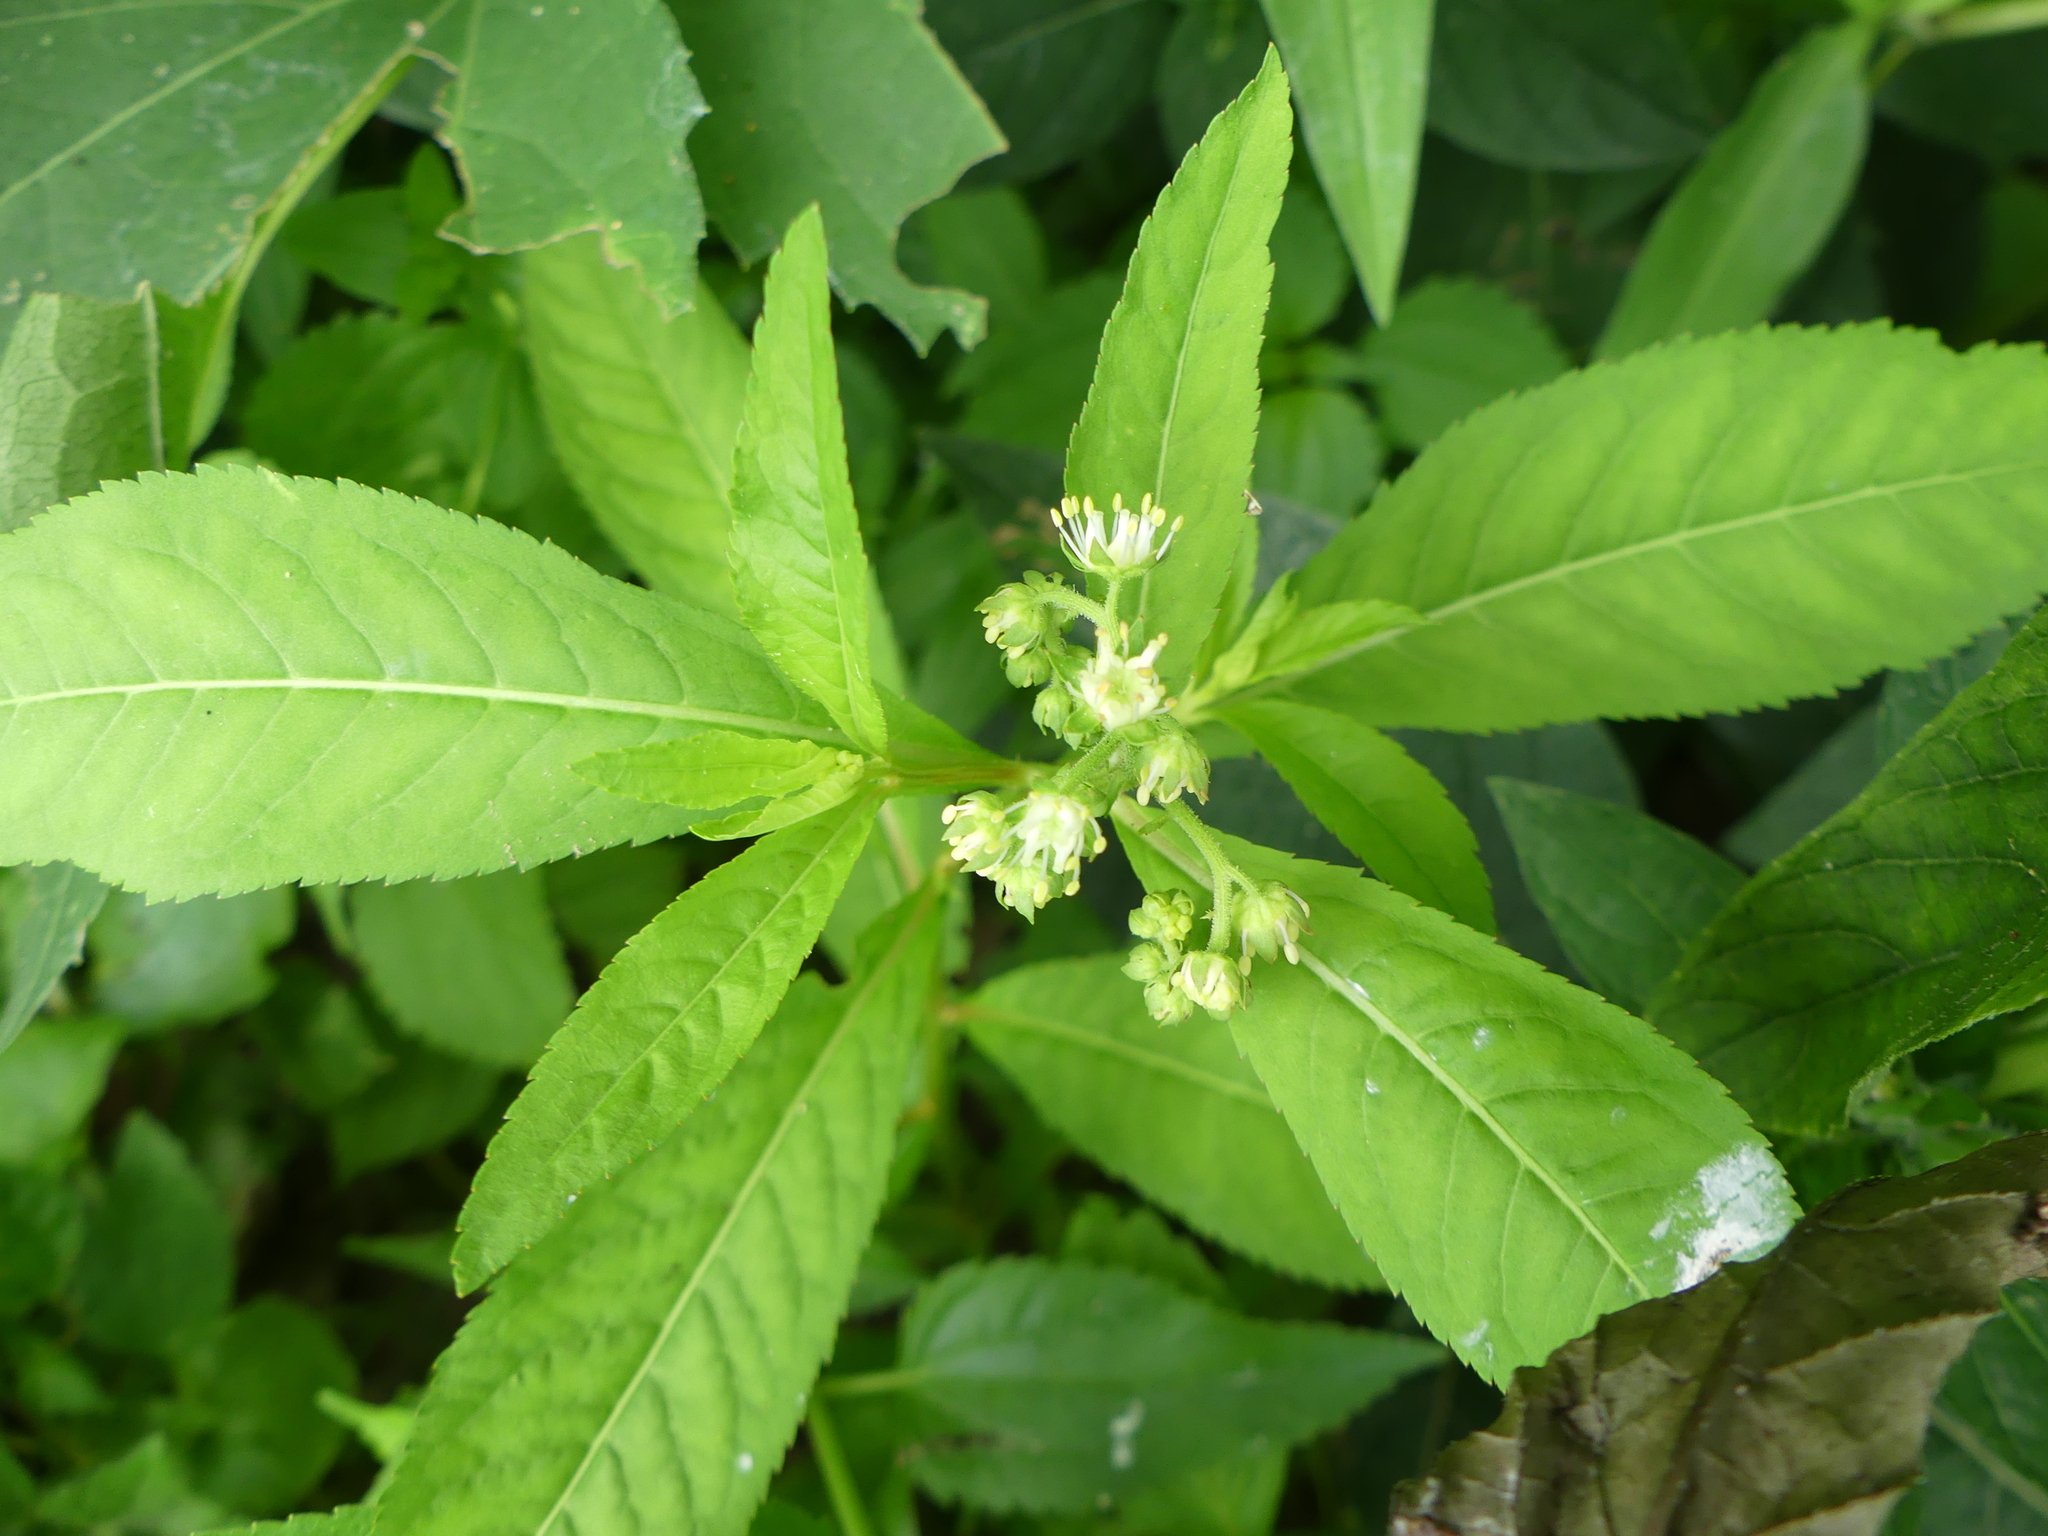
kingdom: Plantae
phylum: Tracheophyta
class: Magnoliopsida
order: Saxifragales
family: Penthoraceae
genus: Penthorum
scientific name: Penthorum sedoides
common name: Ditch stonecrop
